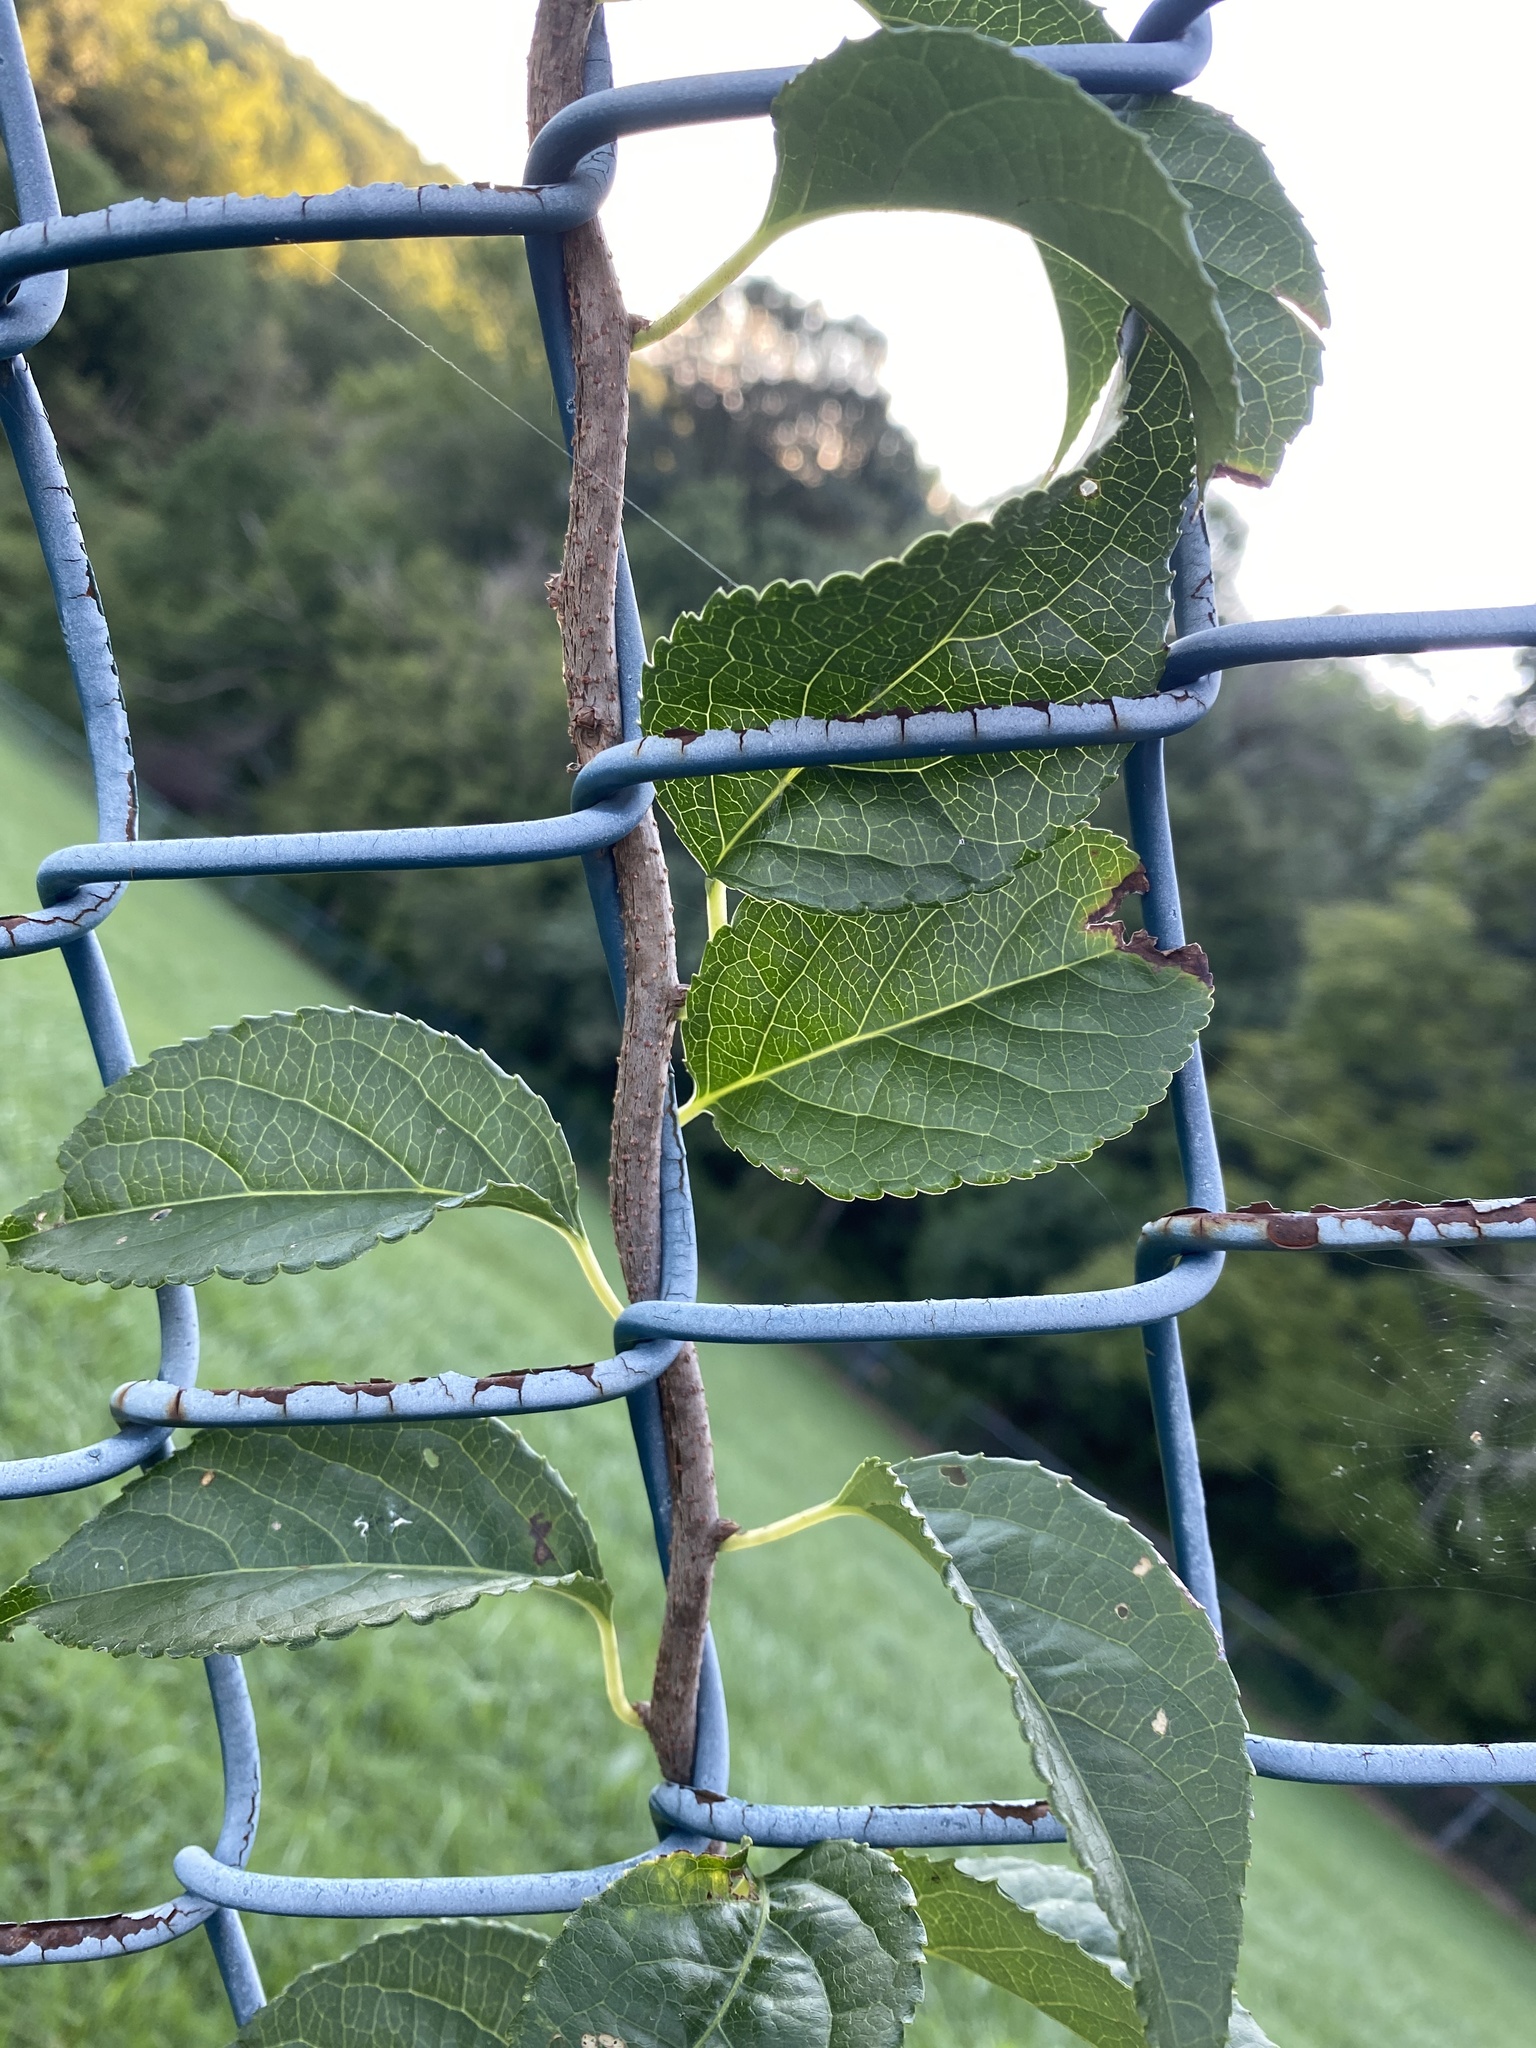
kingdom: Plantae
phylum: Tracheophyta
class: Magnoliopsida
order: Celastrales
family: Celastraceae
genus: Celastrus
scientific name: Celastrus orbiculatus
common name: Oriental bittersweet
